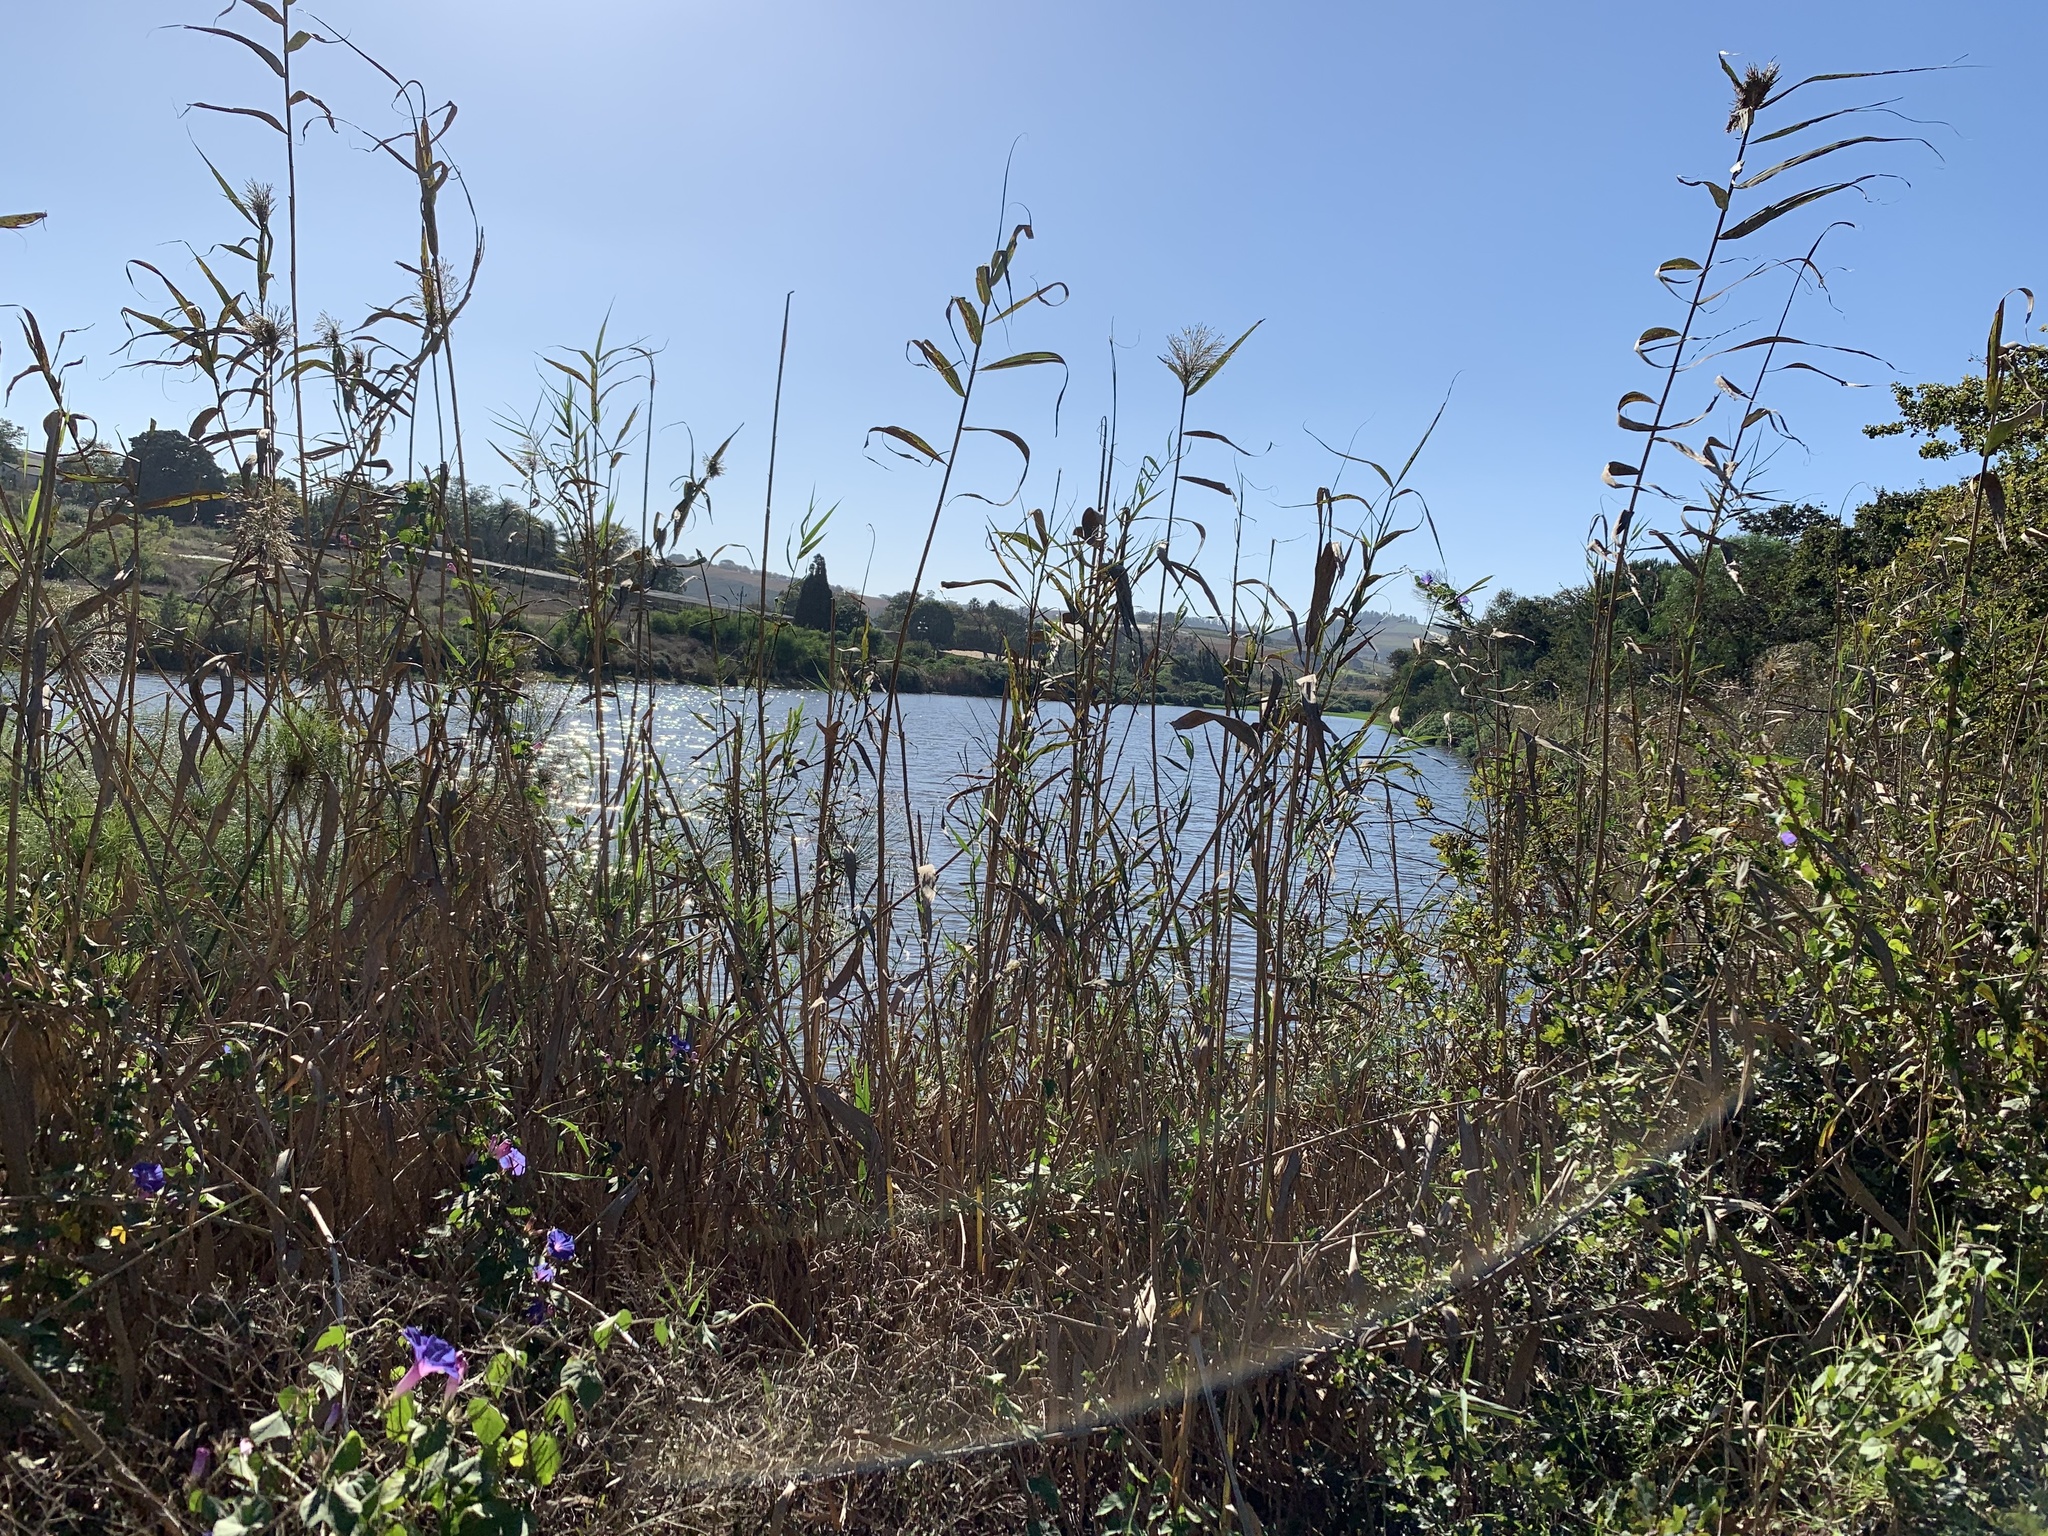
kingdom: Plantae
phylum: Tracheophyta
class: Liliopsida
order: Poales
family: Poaceae
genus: Phragmites
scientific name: Phragmites australis
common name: Common reed
